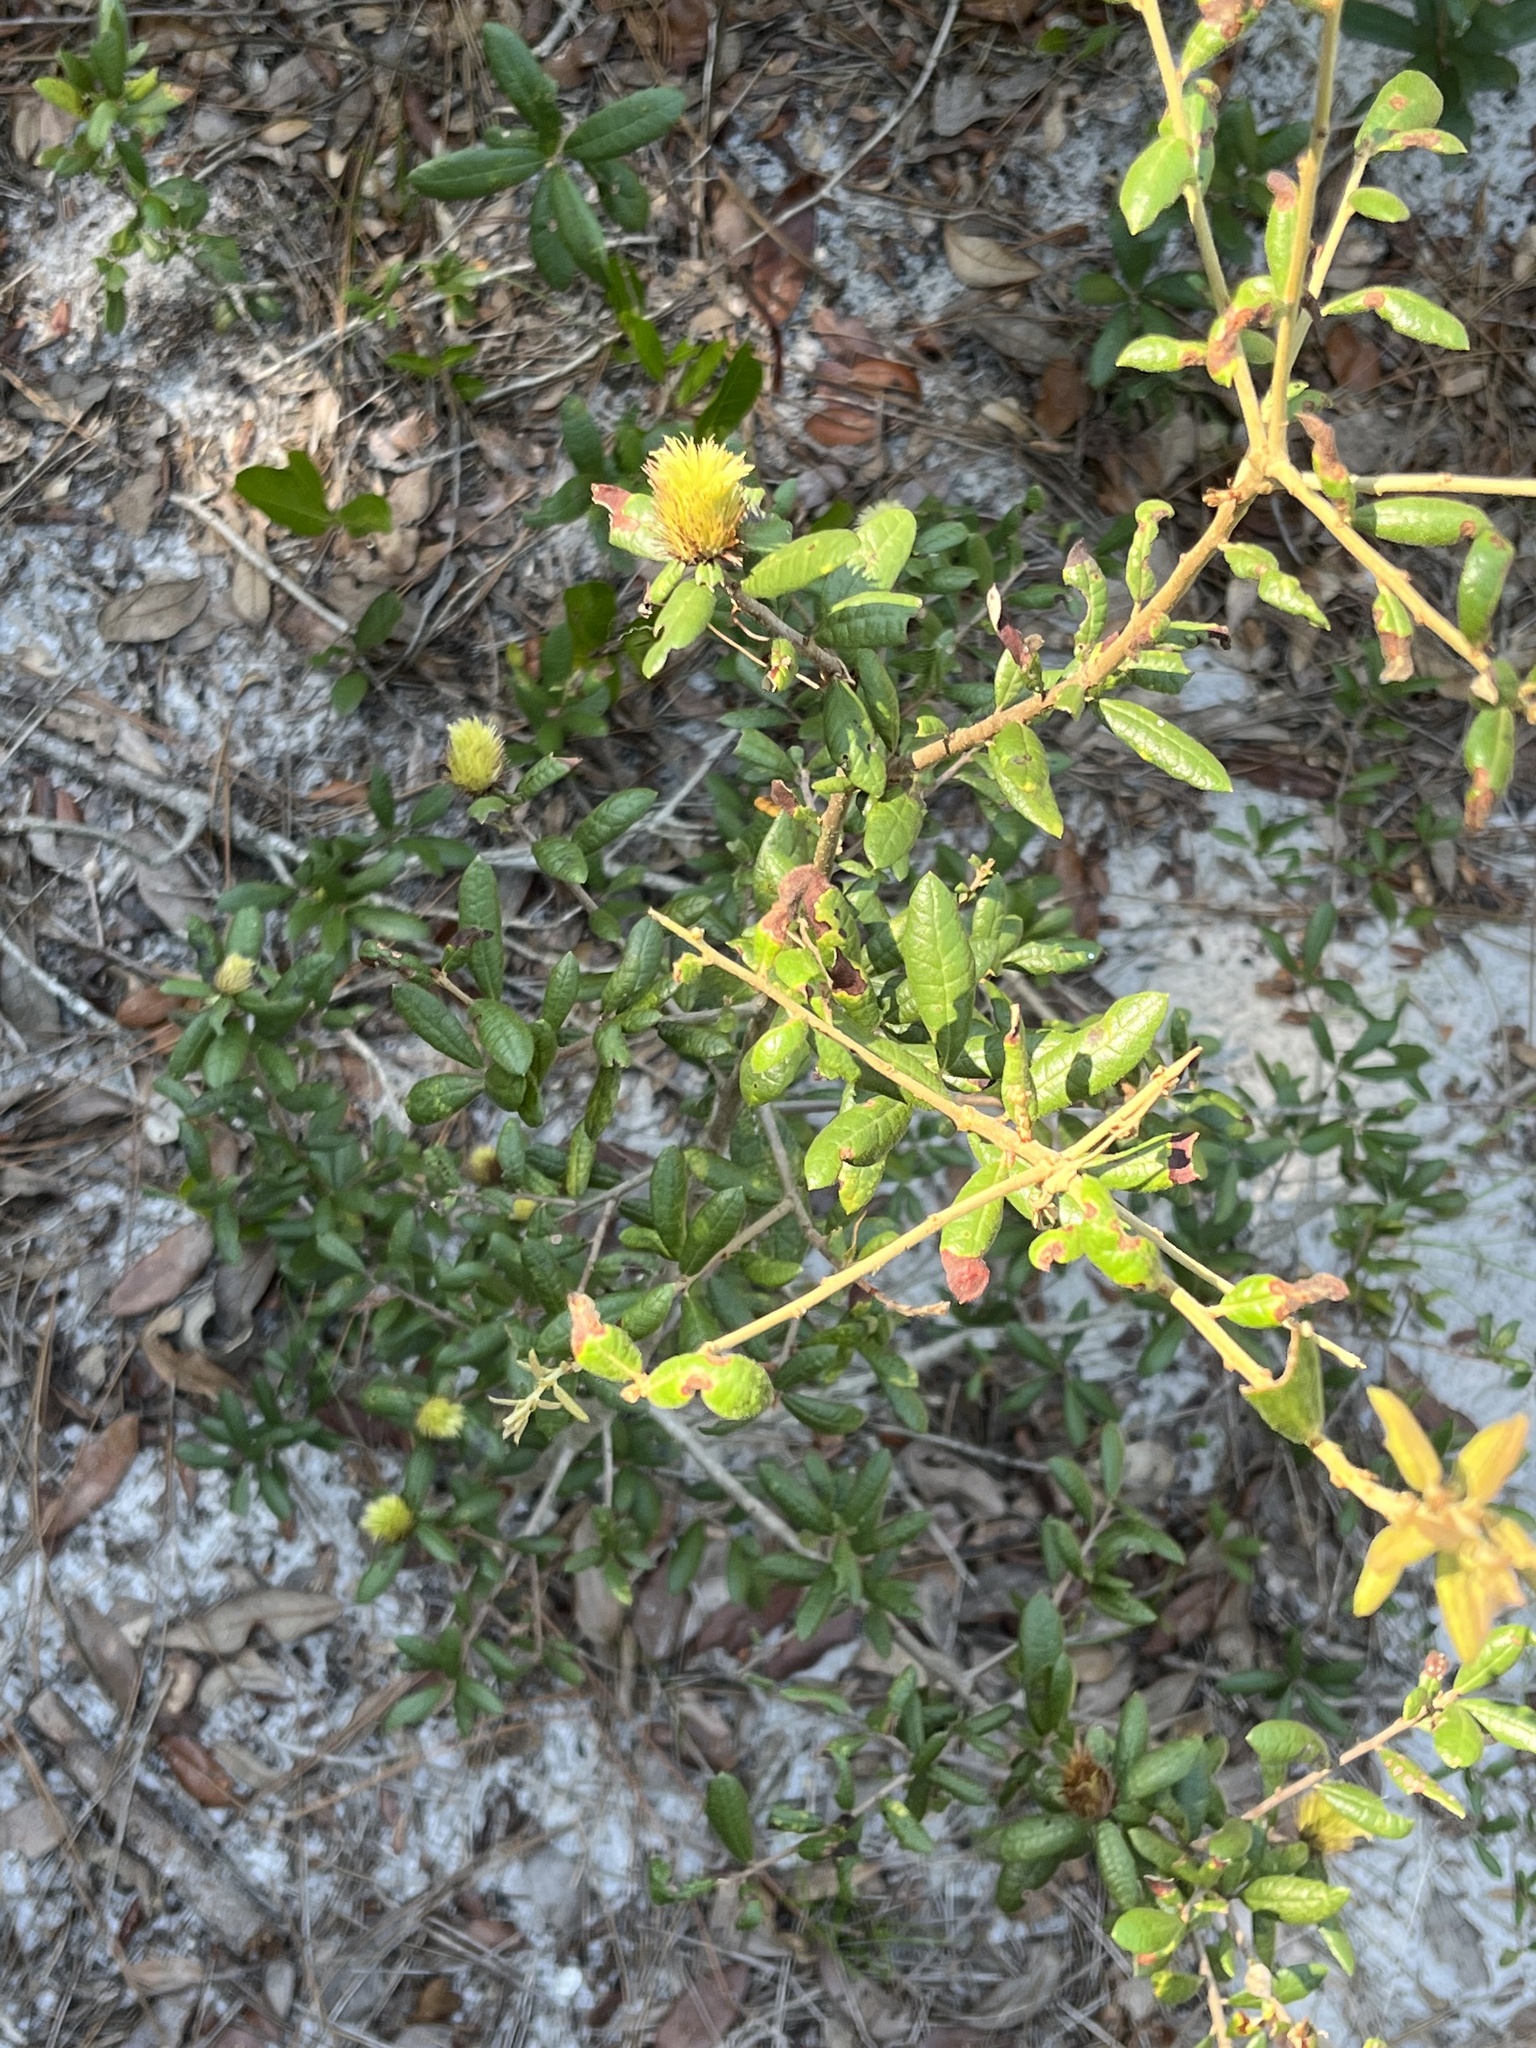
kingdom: Animalia
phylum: Arthropoda
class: Insecta
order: Hymenoptera
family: Cynipidae
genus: Andricus
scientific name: Andricus quercusfoliatus
